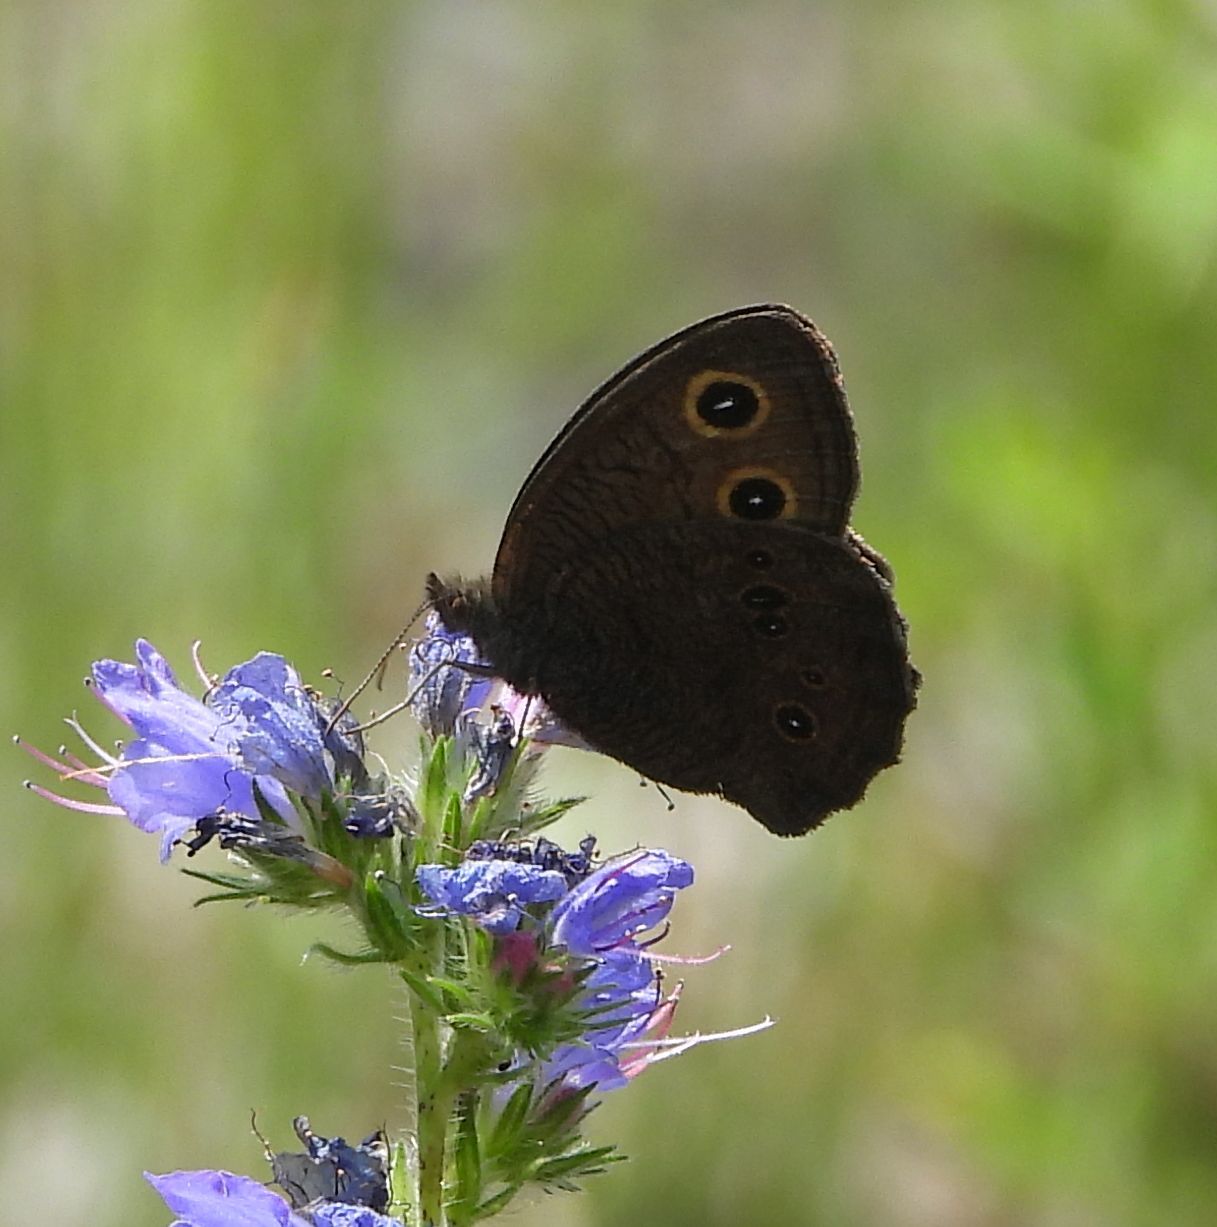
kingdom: Animalia
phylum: Arthropoda
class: Insecta
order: Lepidoptera
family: Nymphalidae
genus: Cercyonis
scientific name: Cercyonis pegala
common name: Common wood-nymph
